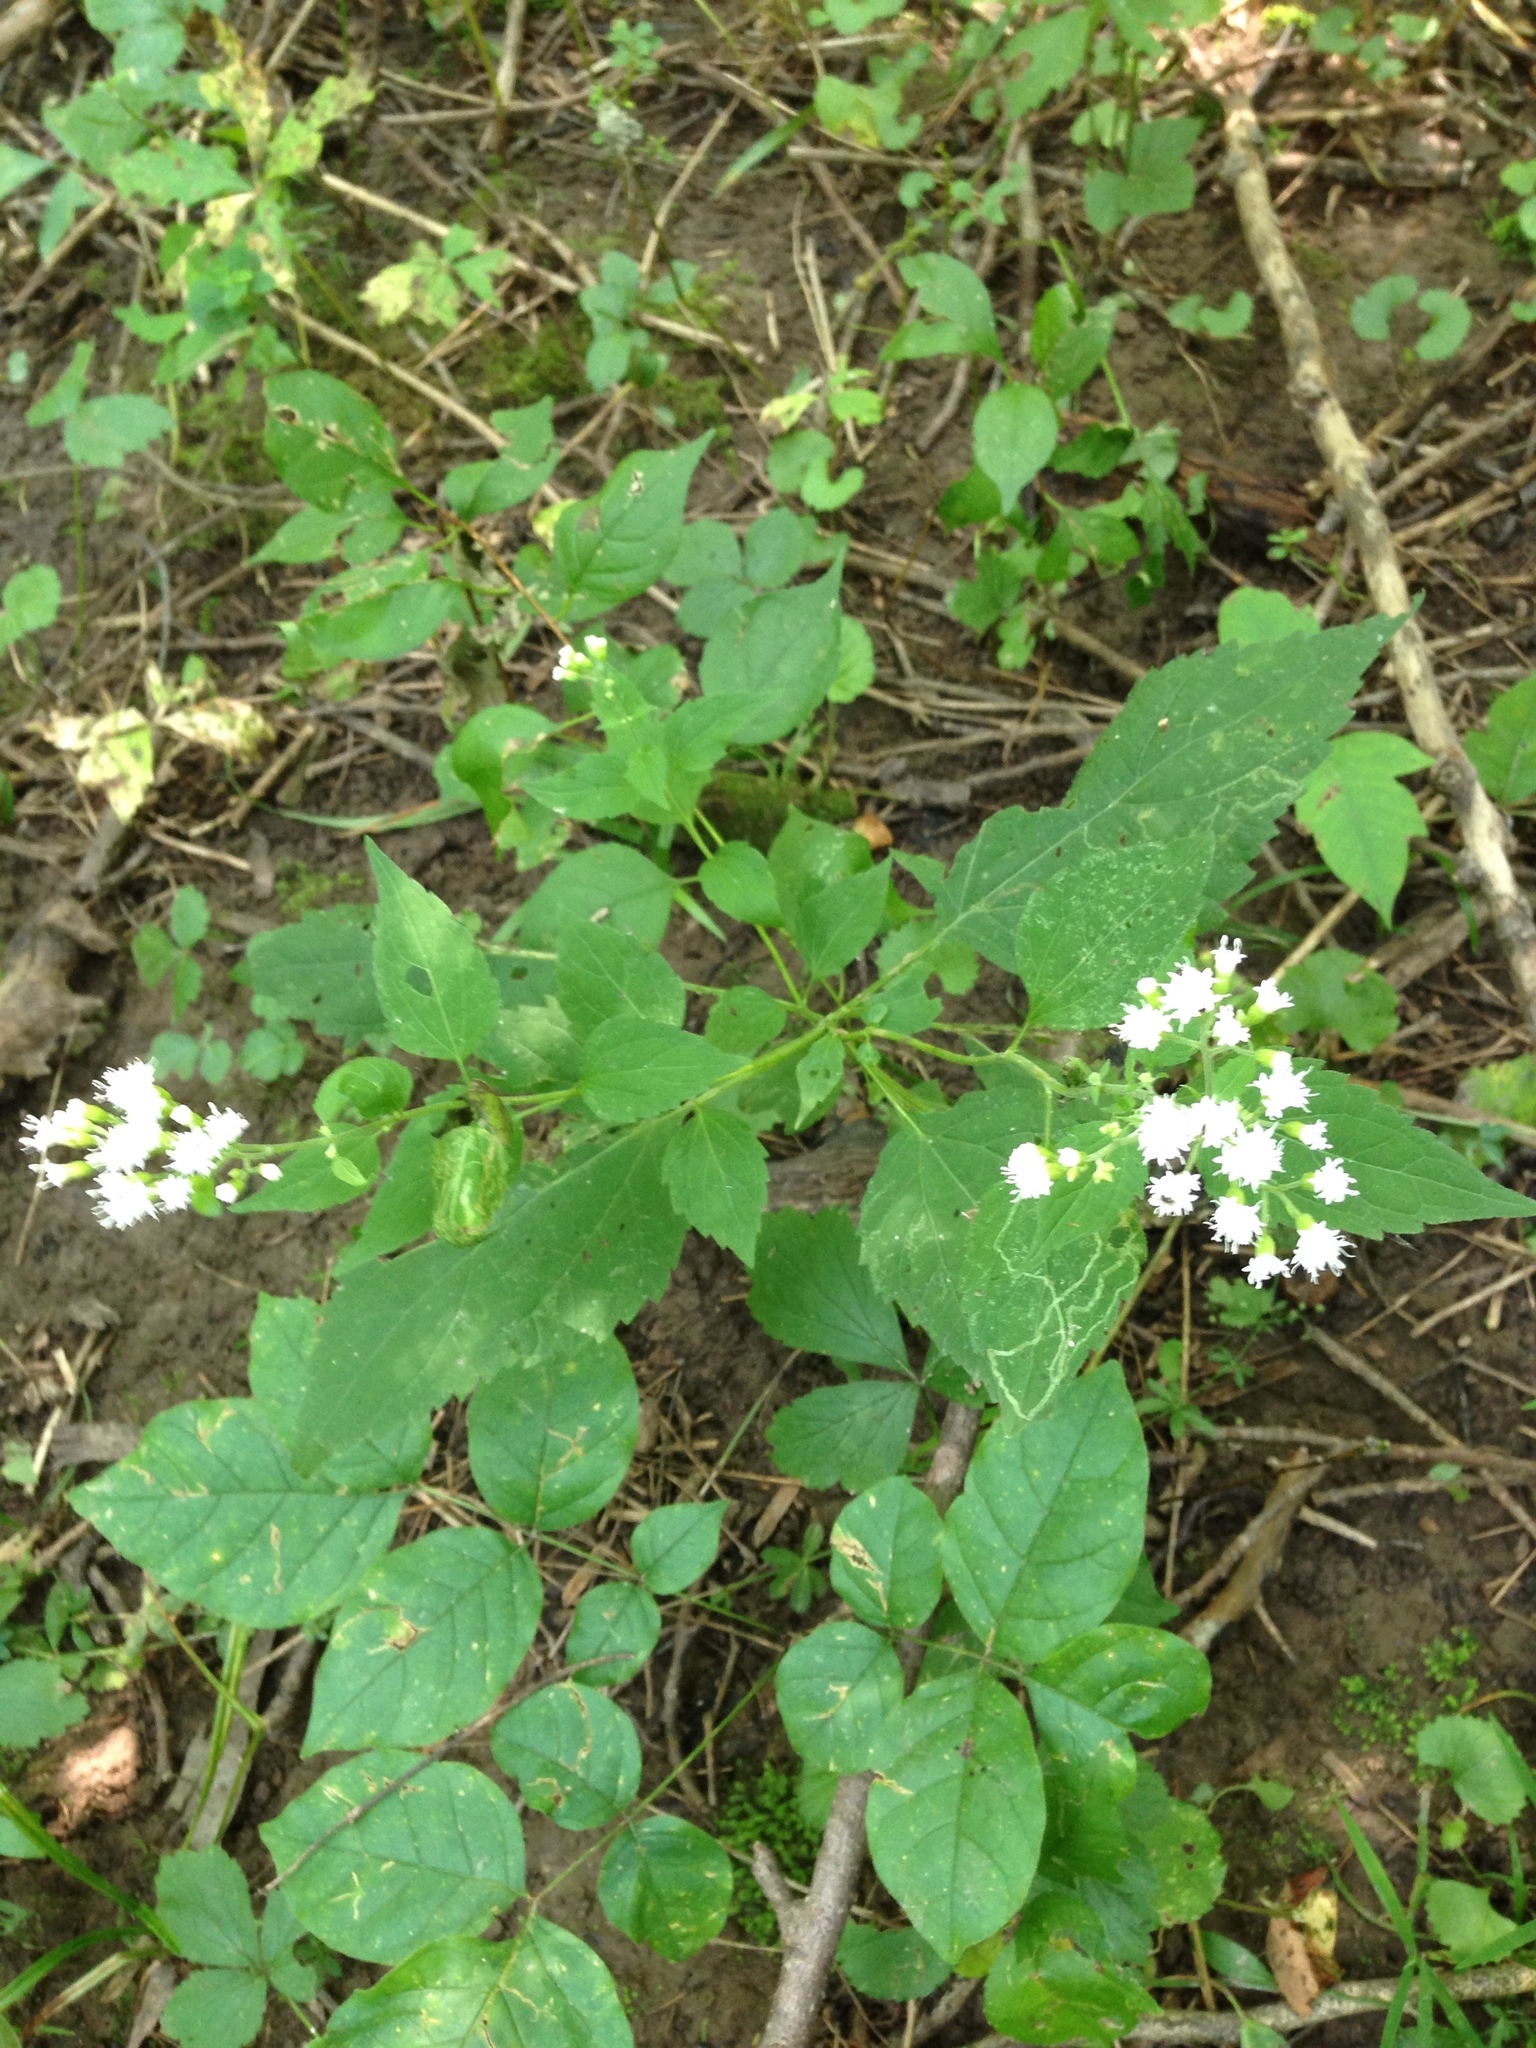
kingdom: Plantae
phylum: Tracheophyta
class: Magnoliopsida
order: Asterales
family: Asteraceae
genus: Ageratina
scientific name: Ageratina altissima
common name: White snakeroot
